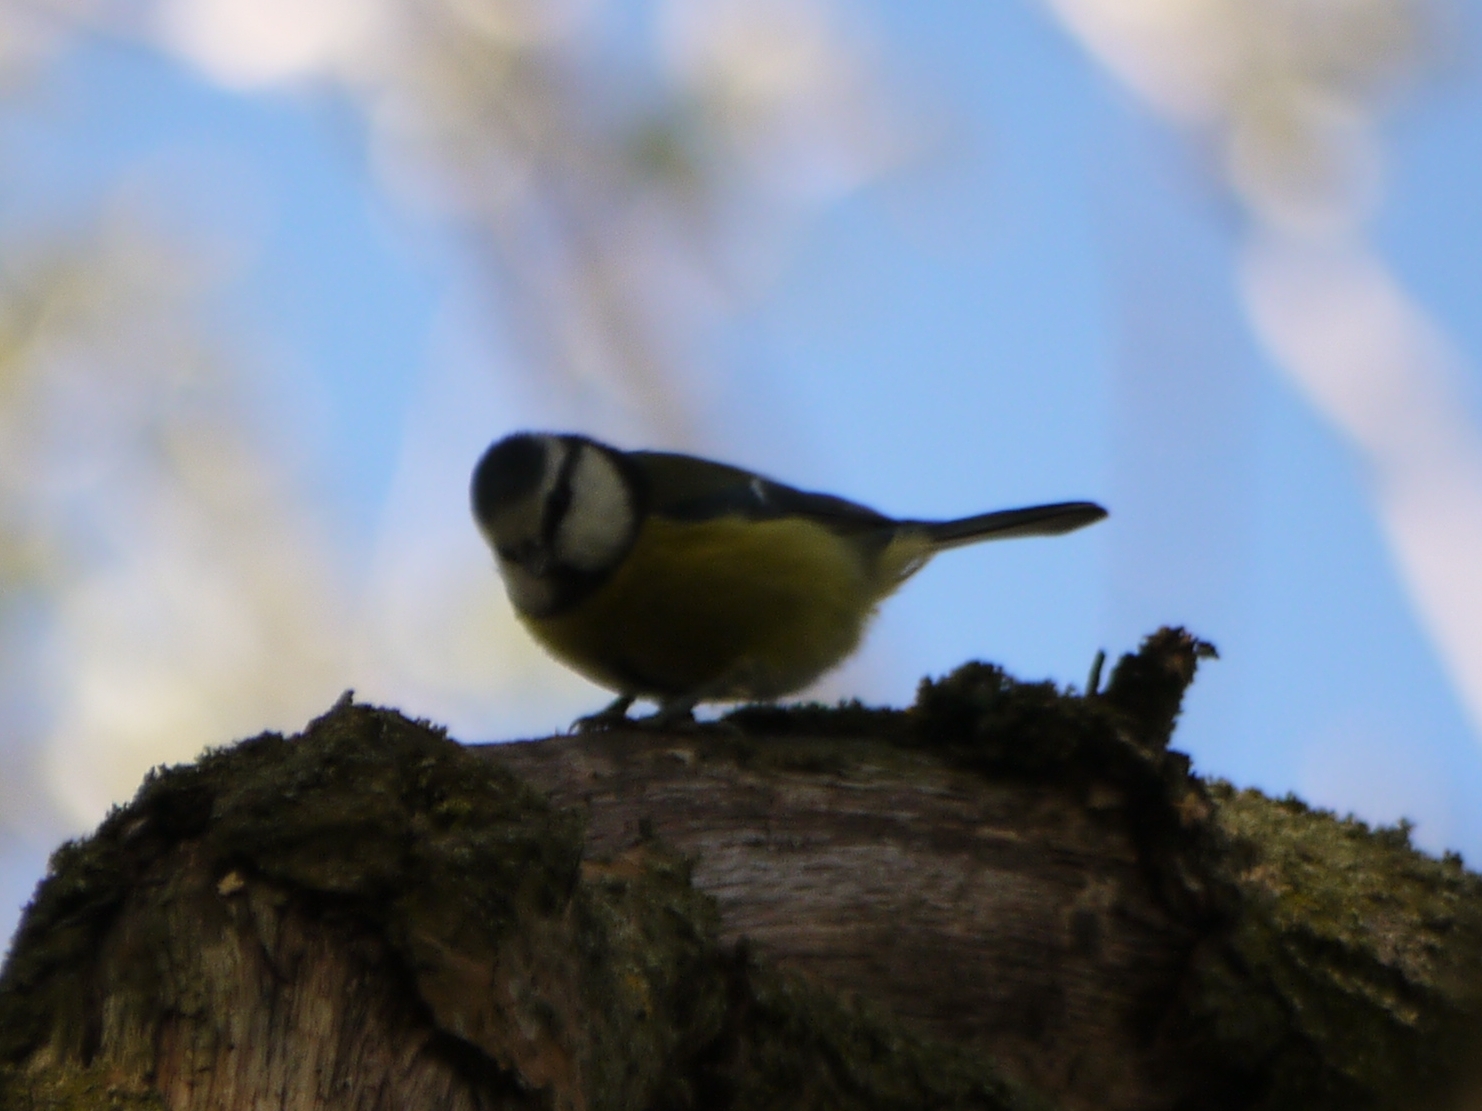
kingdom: Animalia
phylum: Chordata
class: Aves
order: Passeriformes
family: Paridae
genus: Cyanistes
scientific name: Cyanistes caeruleus
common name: Eurasian blue tit
